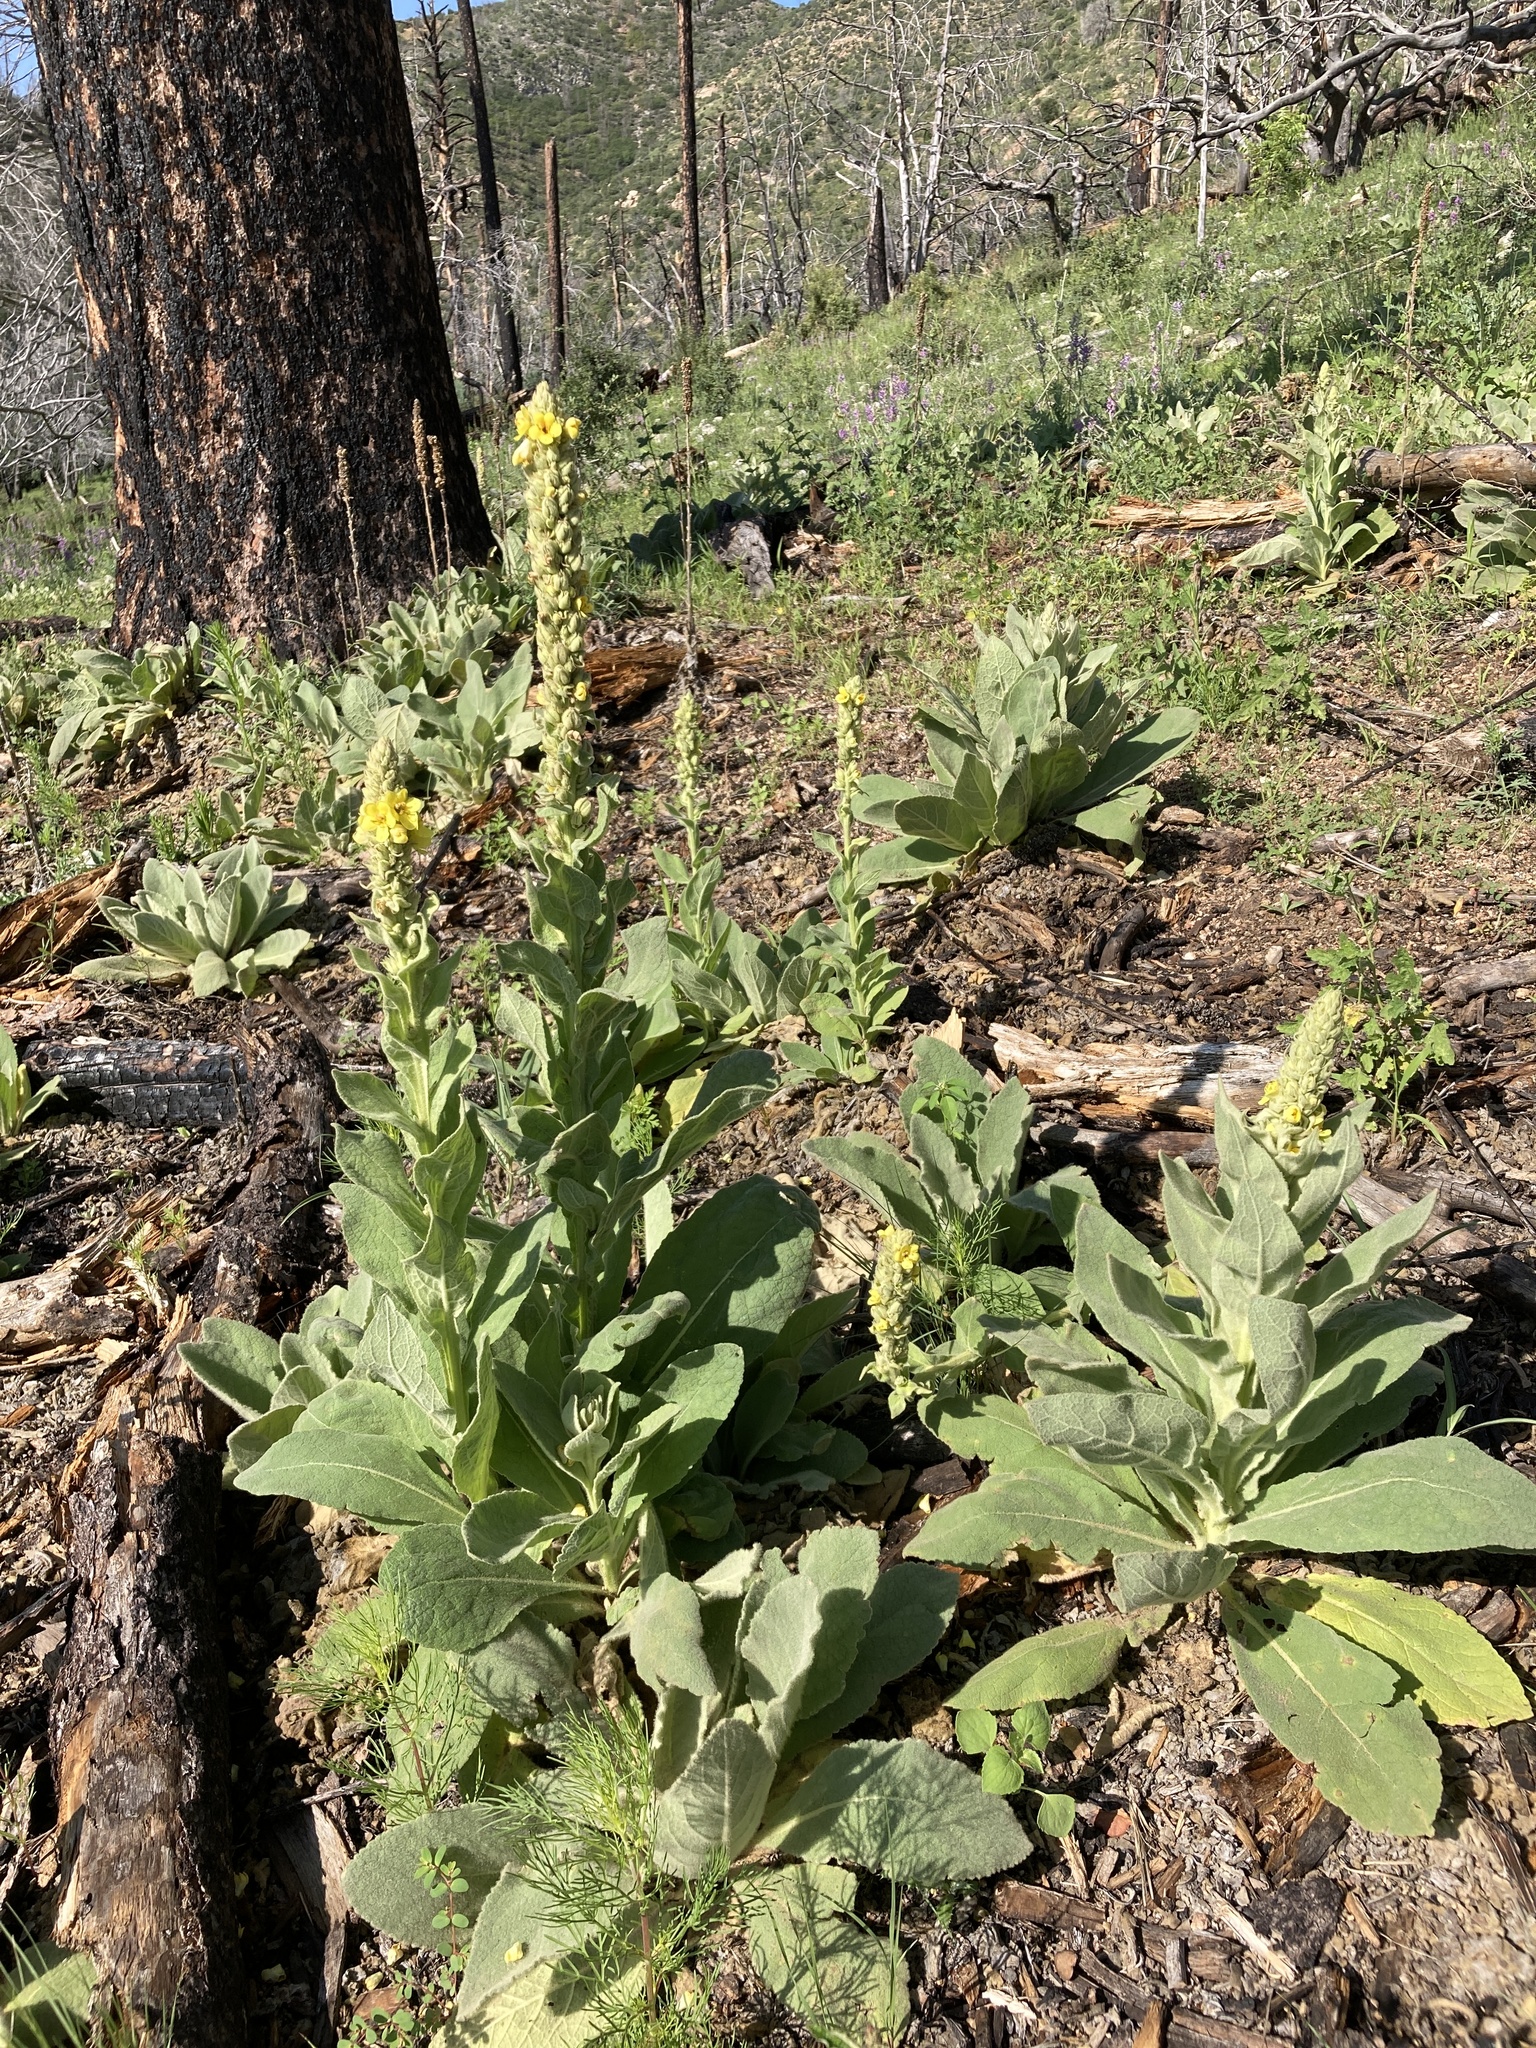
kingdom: Plantae
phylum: Tracheophyta
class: Magnoliopsida
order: Lamiales
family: Scrophulariaceae
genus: Verbascum
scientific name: Verbascum thapsus
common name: Common mullein
